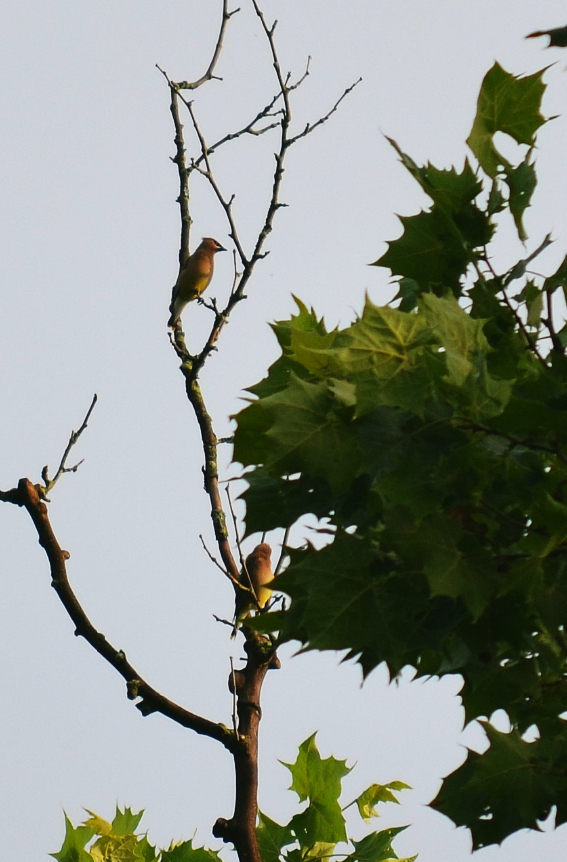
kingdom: Animalia
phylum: Chordata
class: Aves
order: Passeriformes
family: Bombycillidae
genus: Bombycilla
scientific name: Bombycilla cedrorum
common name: Cedar waxwing
